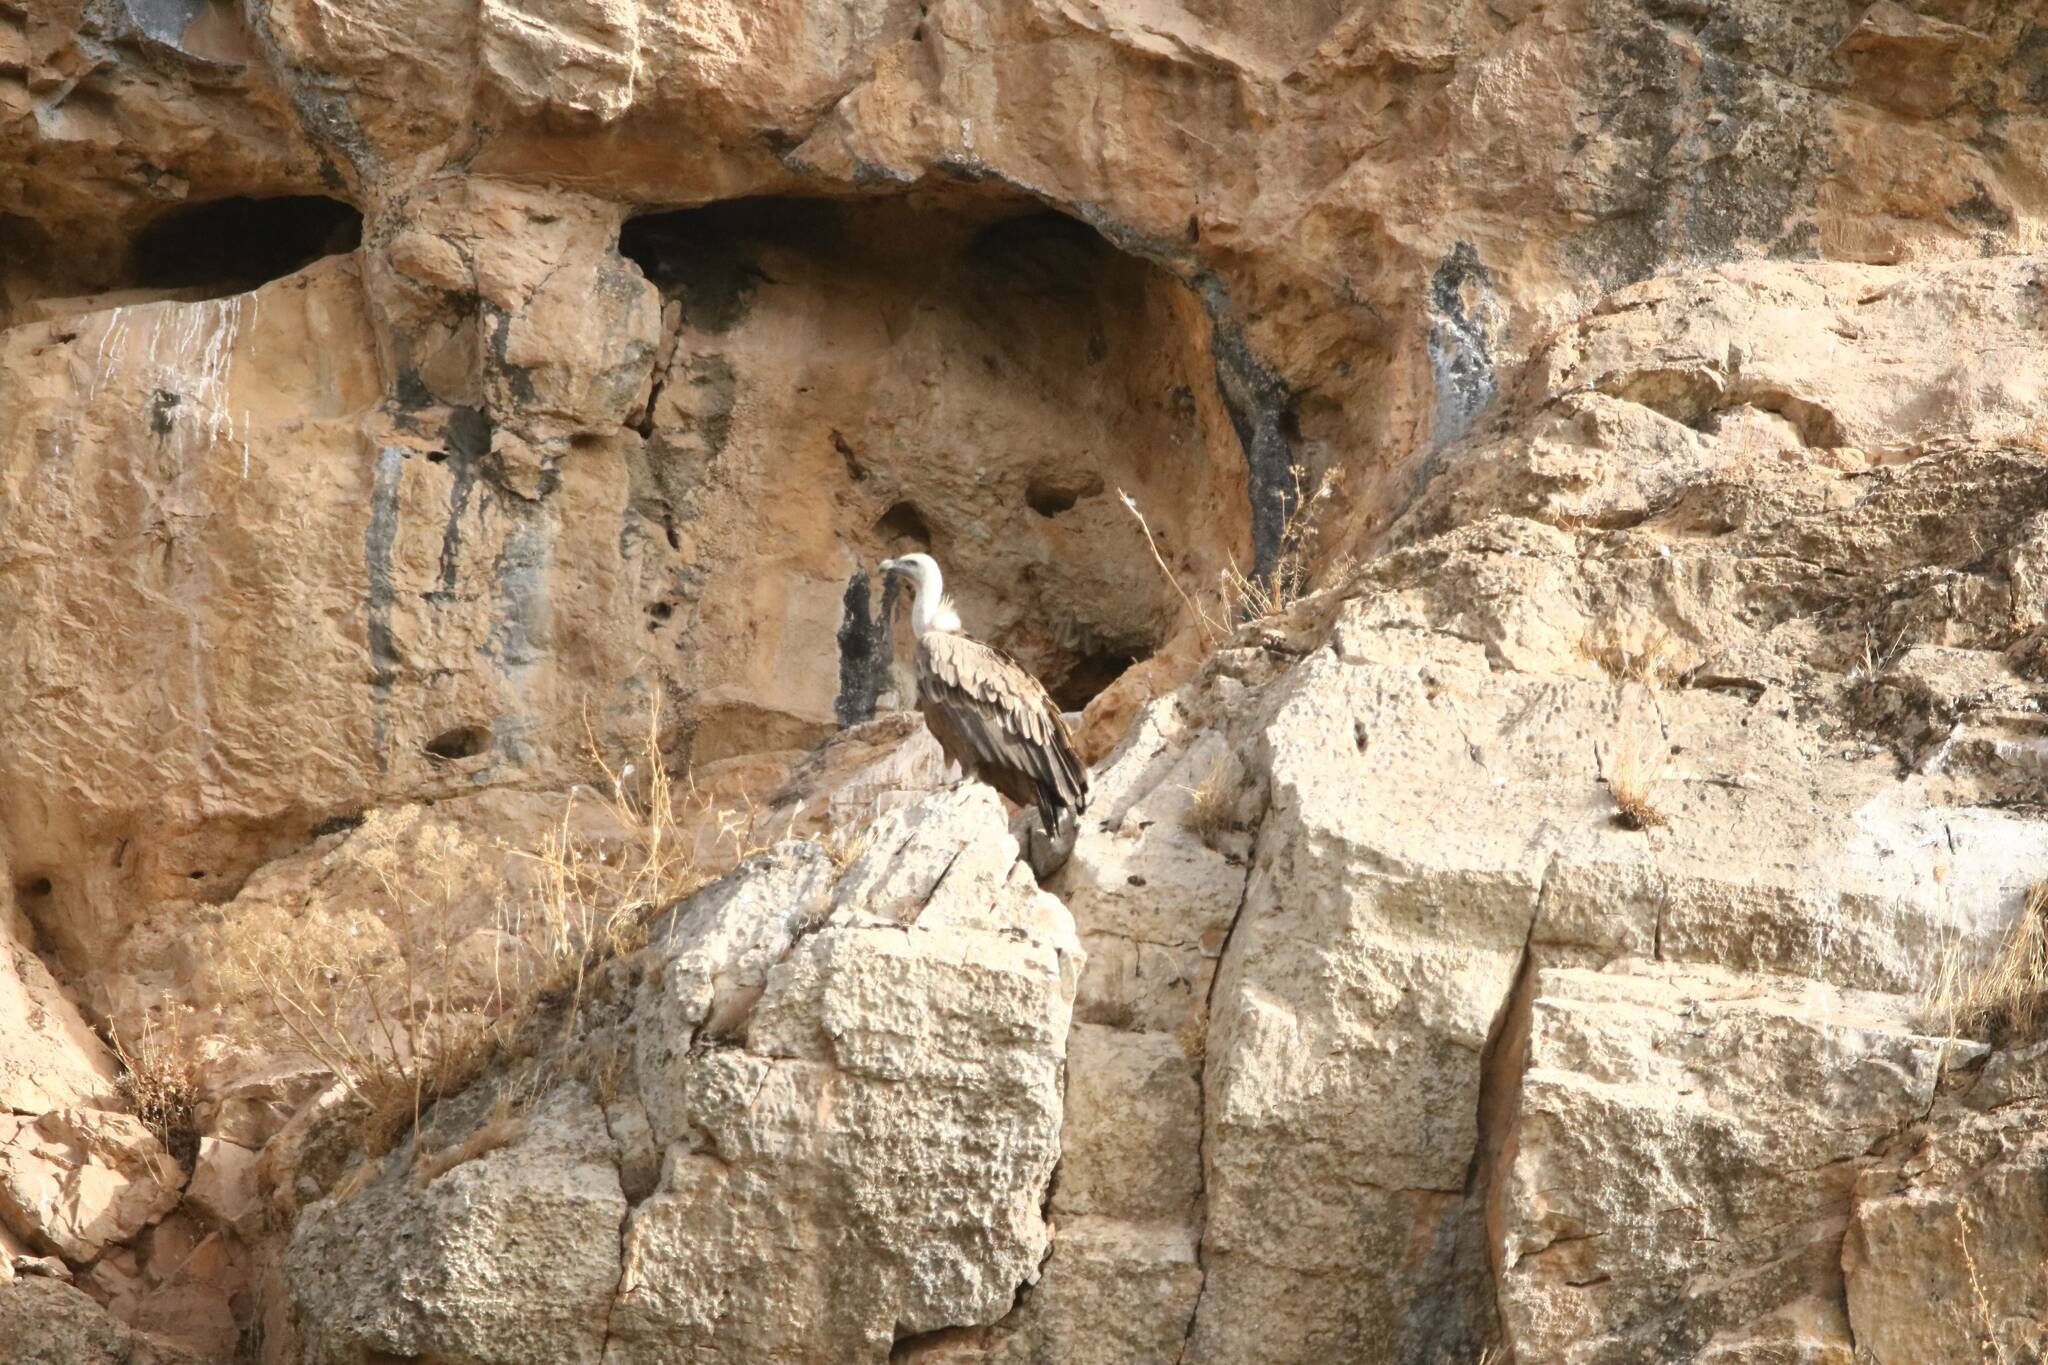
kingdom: Animalia
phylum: Chordata
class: Aves
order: Accipitriformes
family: Accipitridae
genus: Gyps
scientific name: Gyps fulvus
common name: Griffon vulture
